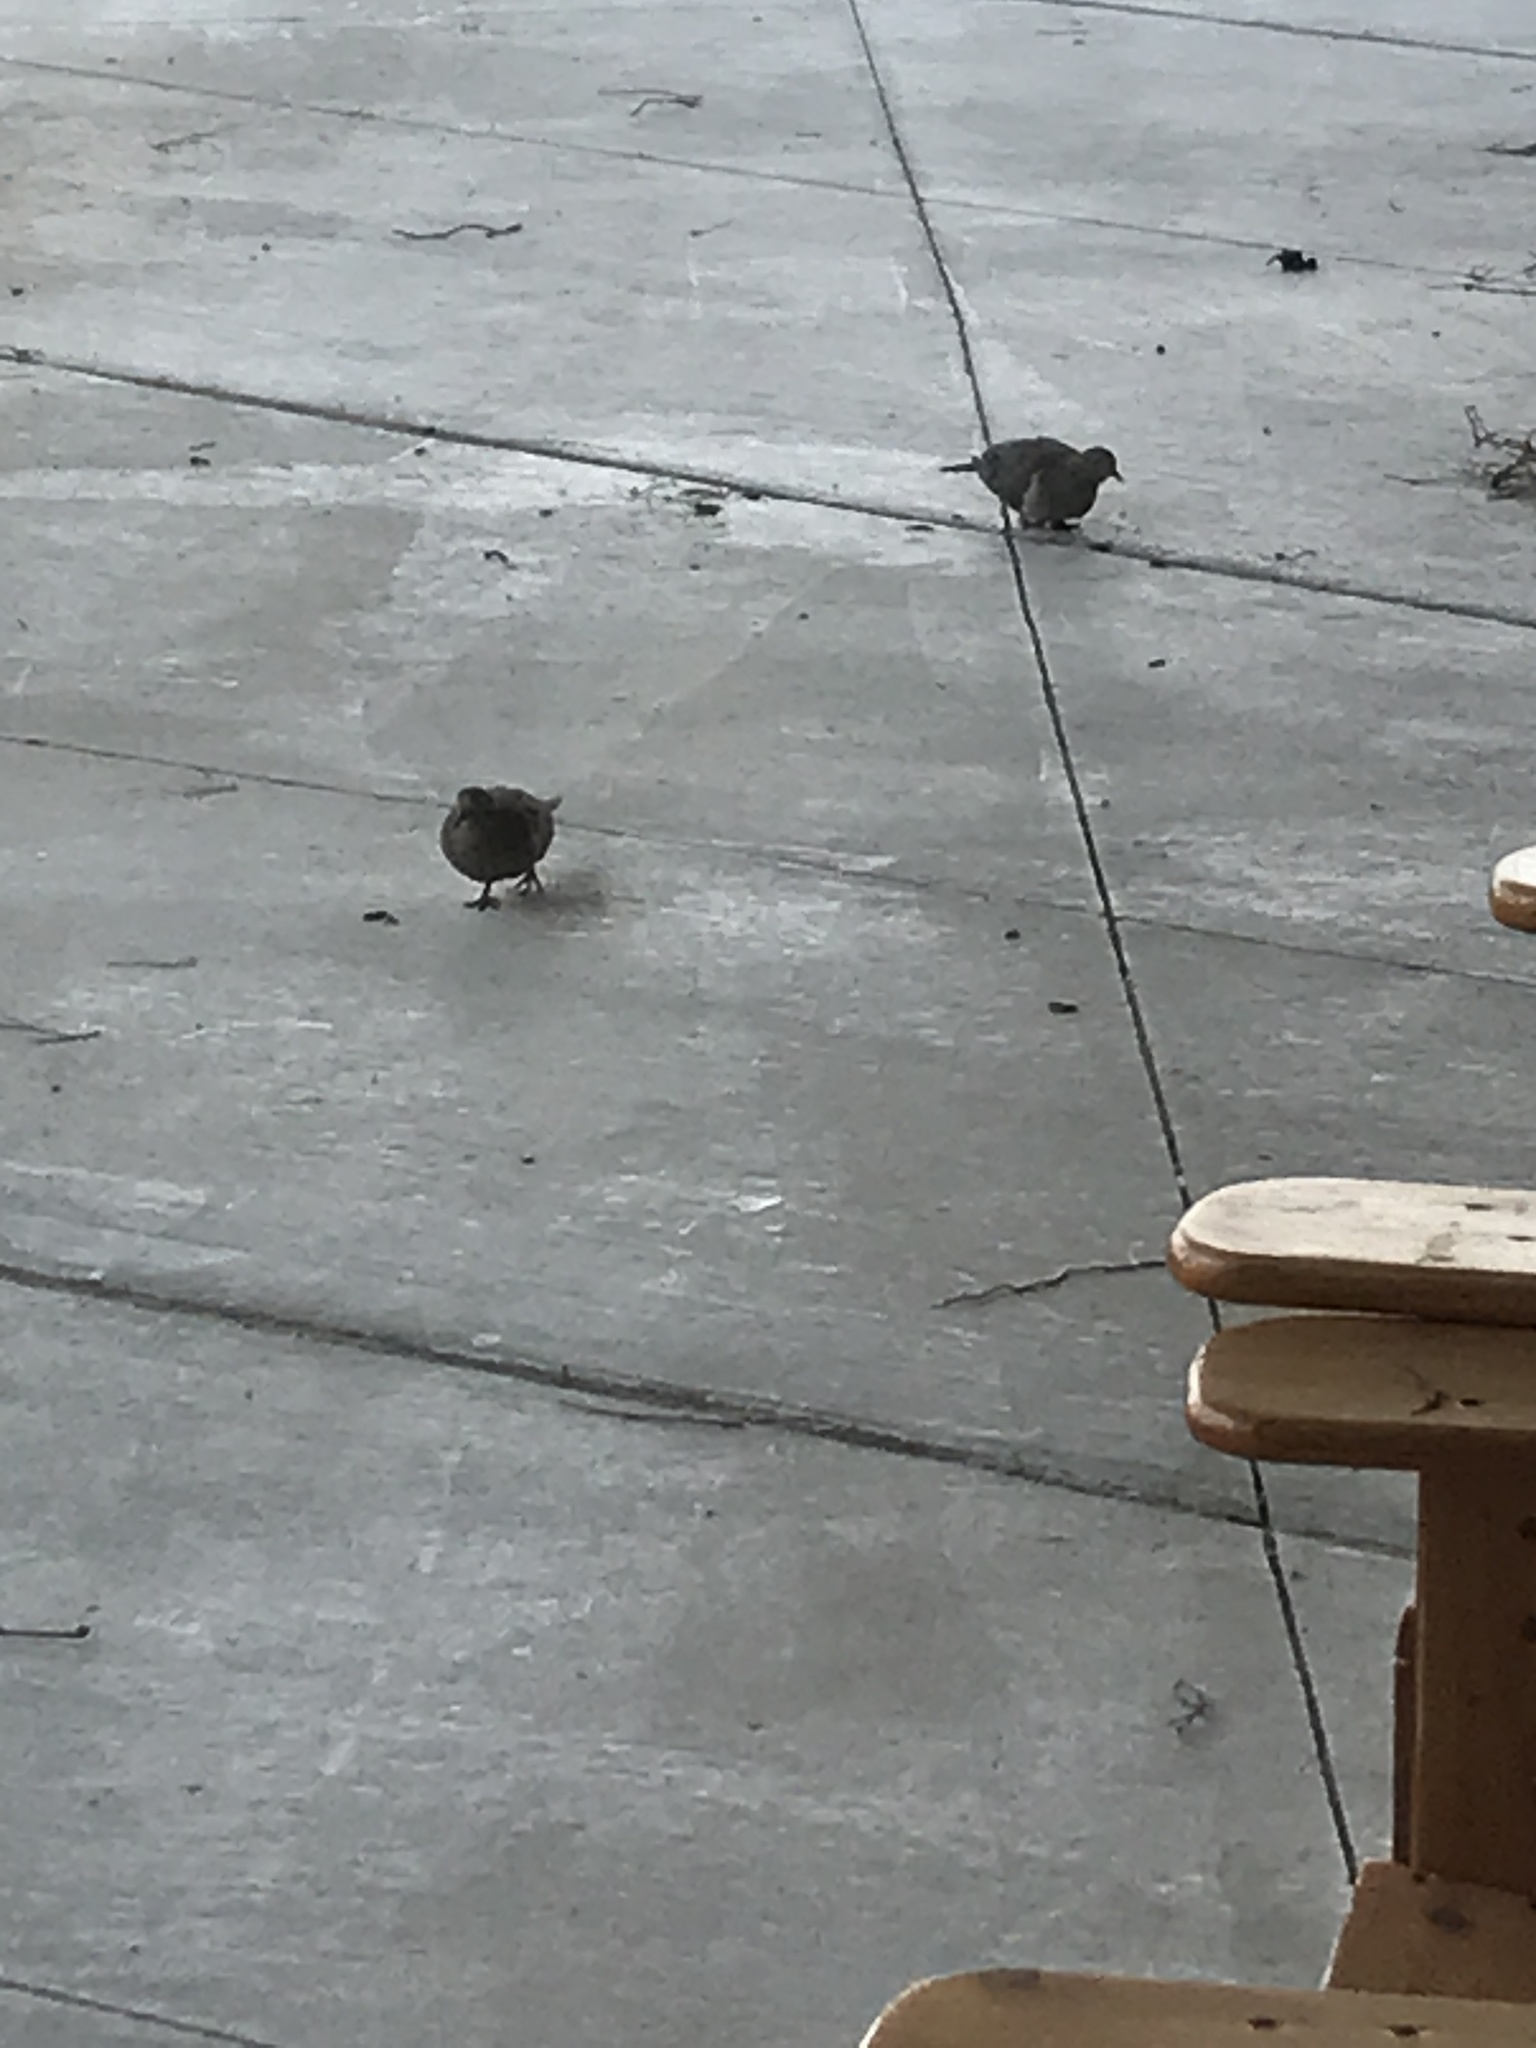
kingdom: Animalia
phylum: Chordata
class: Aves
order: Columbiformes
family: Columbidae
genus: Zenaida
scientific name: Zenaida macroura
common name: Mourning dove
